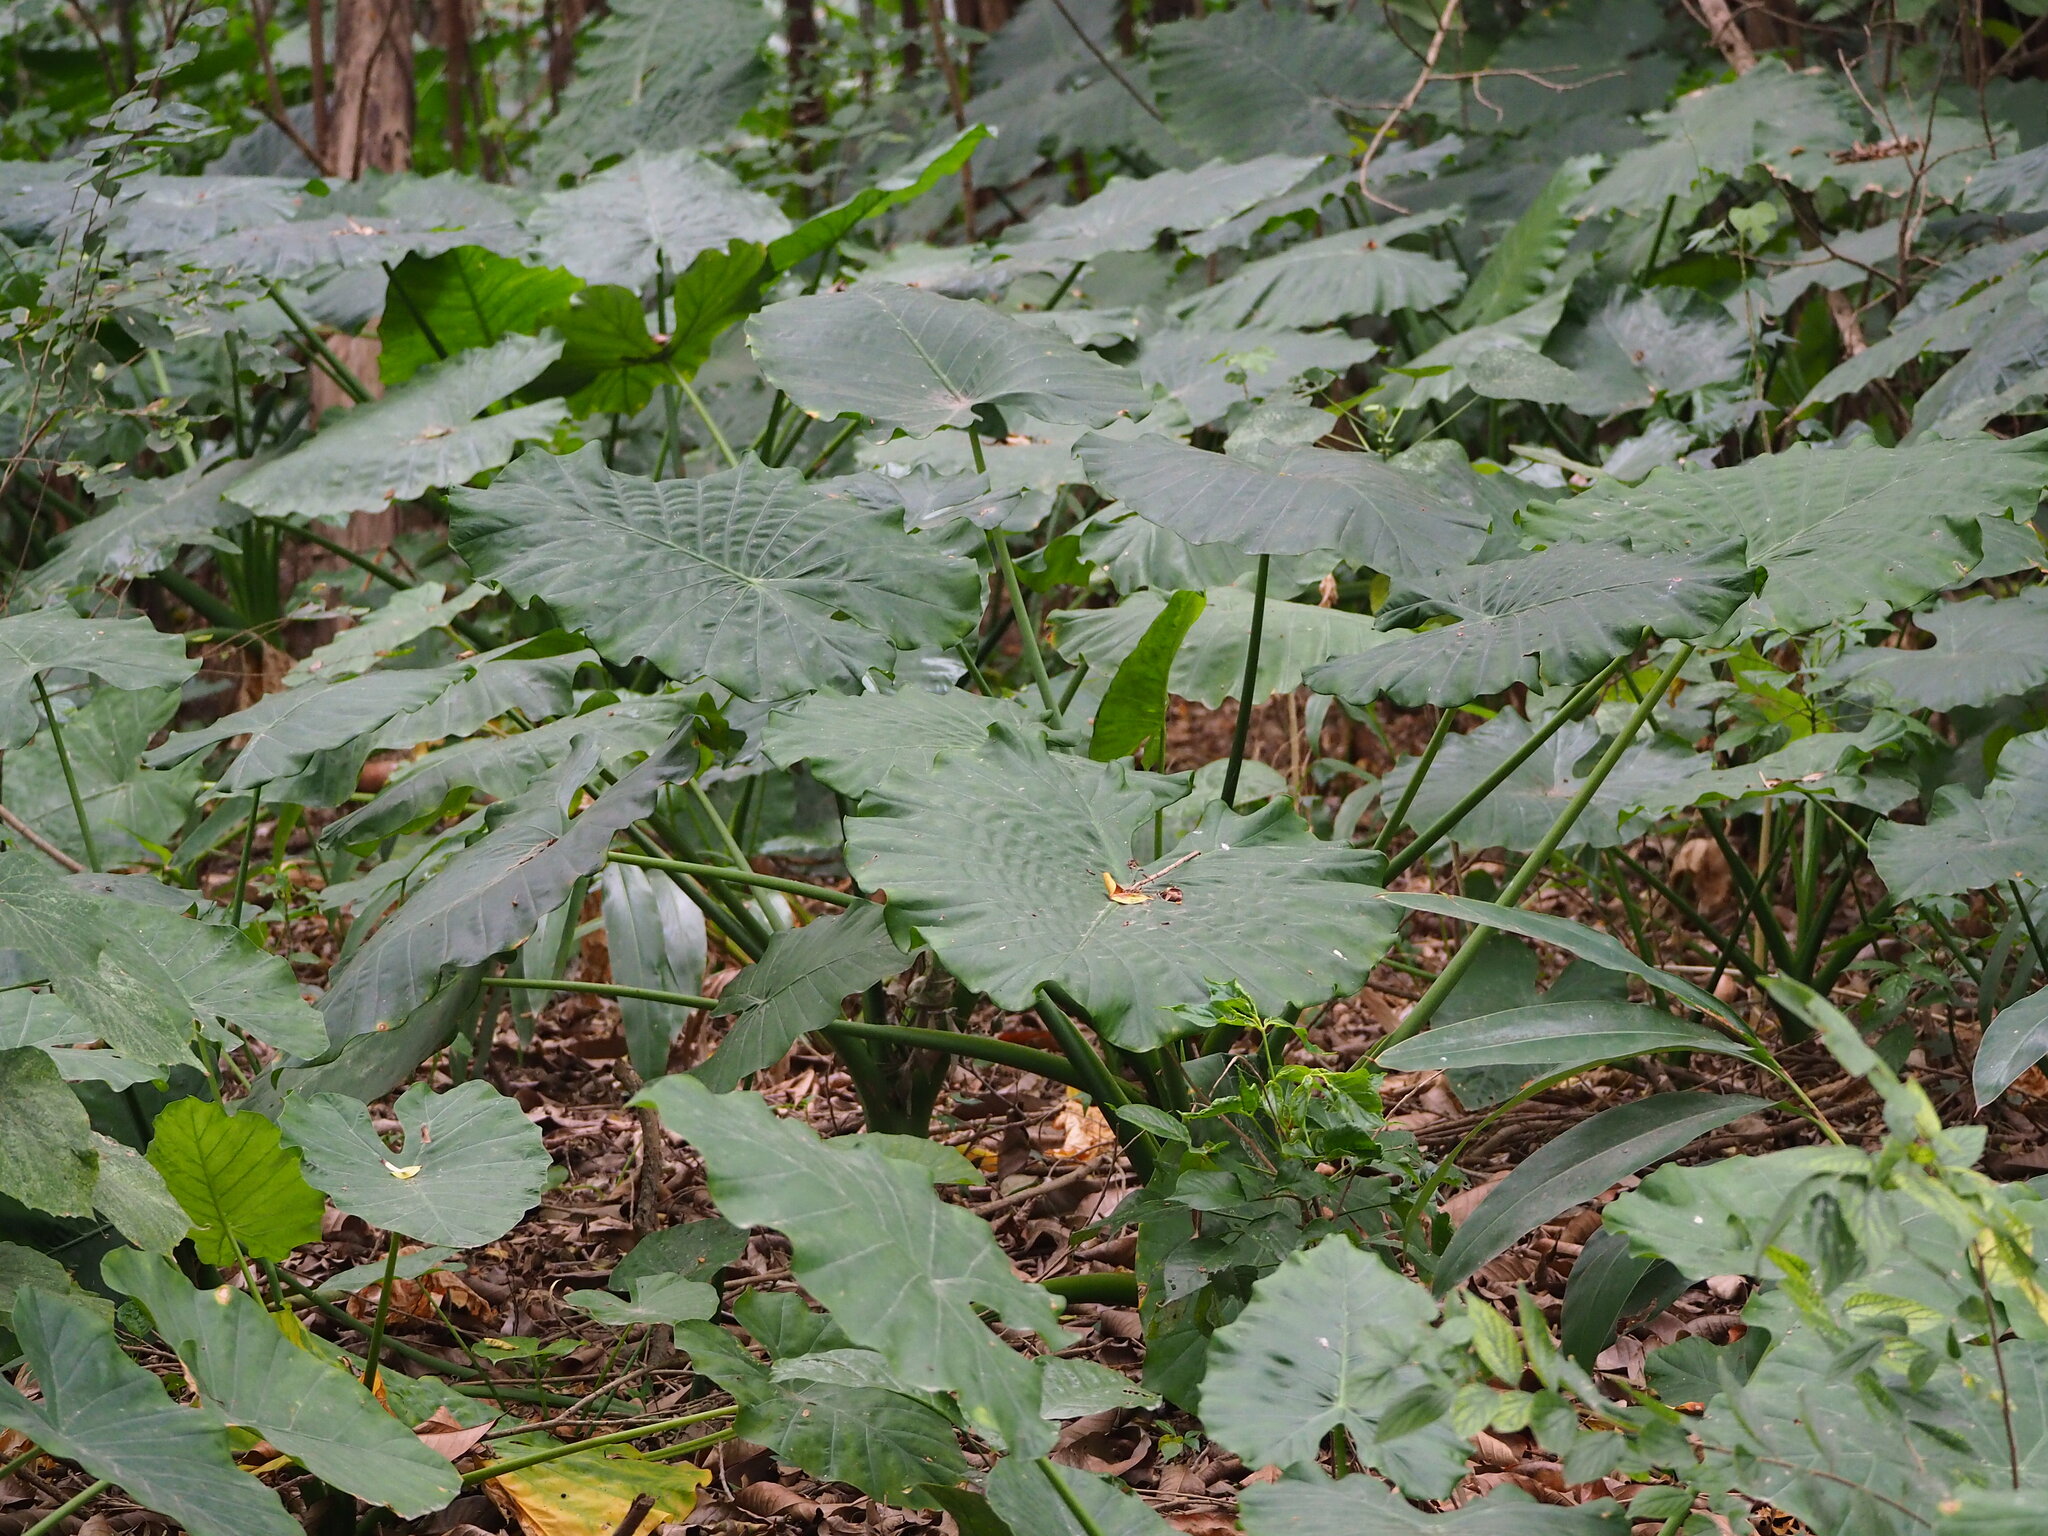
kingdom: Plantae
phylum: Tracheophyta
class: Liliopsida
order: Alismatales
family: Araceae
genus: Alocasia
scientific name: Alocasia odora
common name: Asian taro
